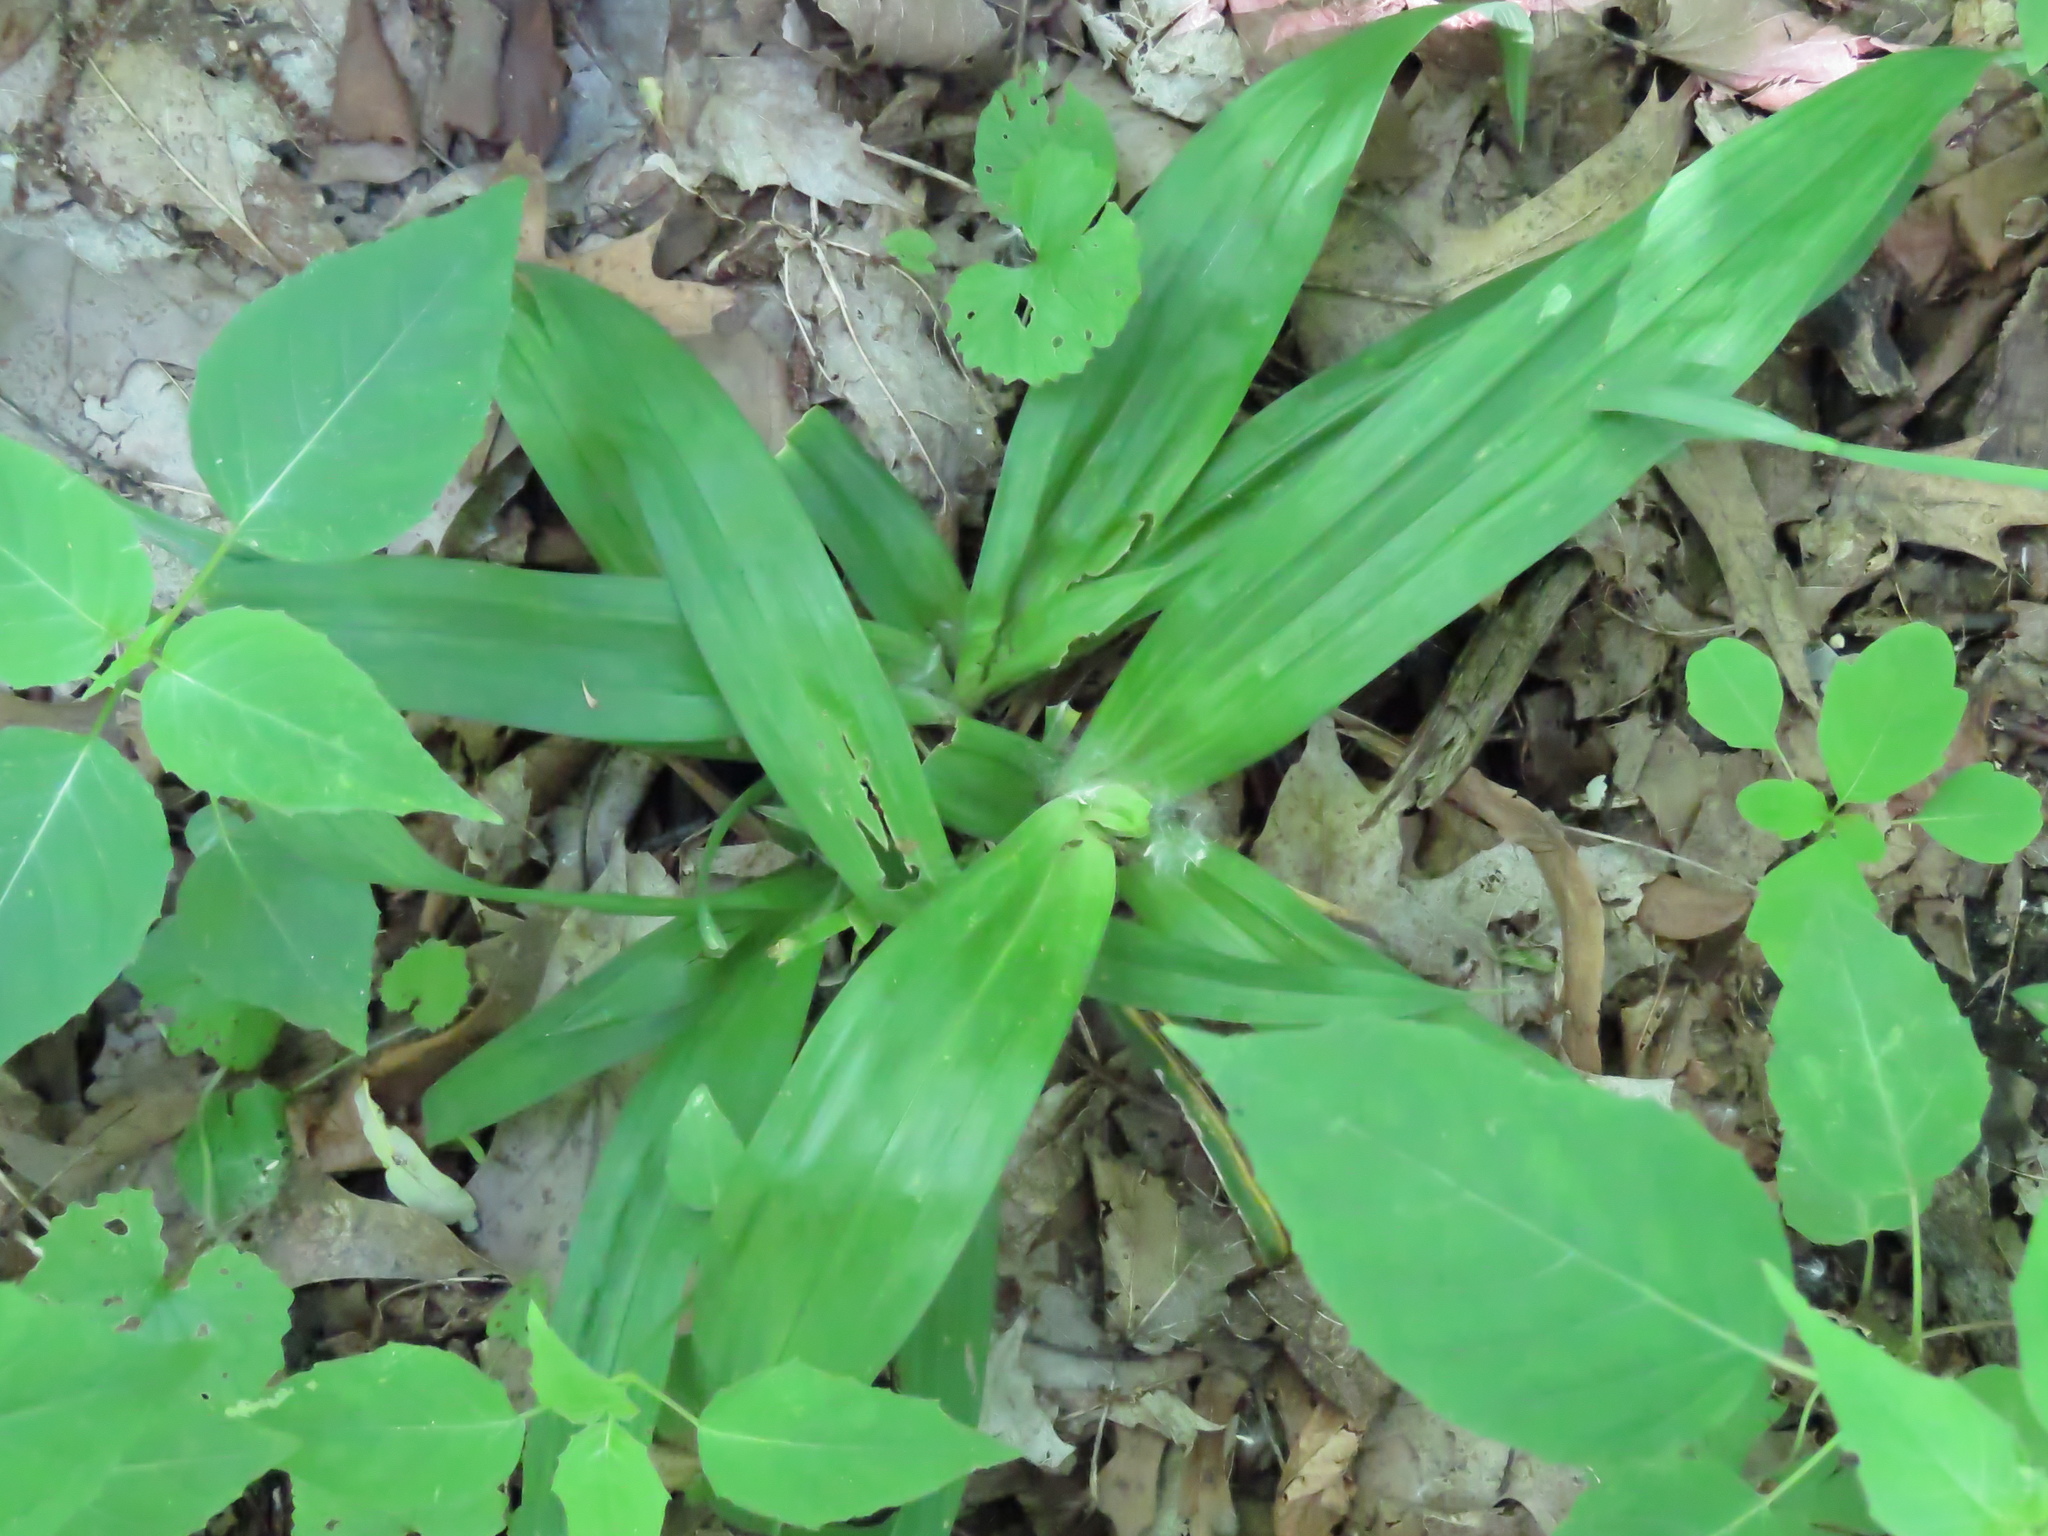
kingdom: Plantae
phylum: Tracheophyta
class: Liliopsida
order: Poales
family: Cyperaceae
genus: Carex
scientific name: Carex albursina
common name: Blunt-scale wood sedge
